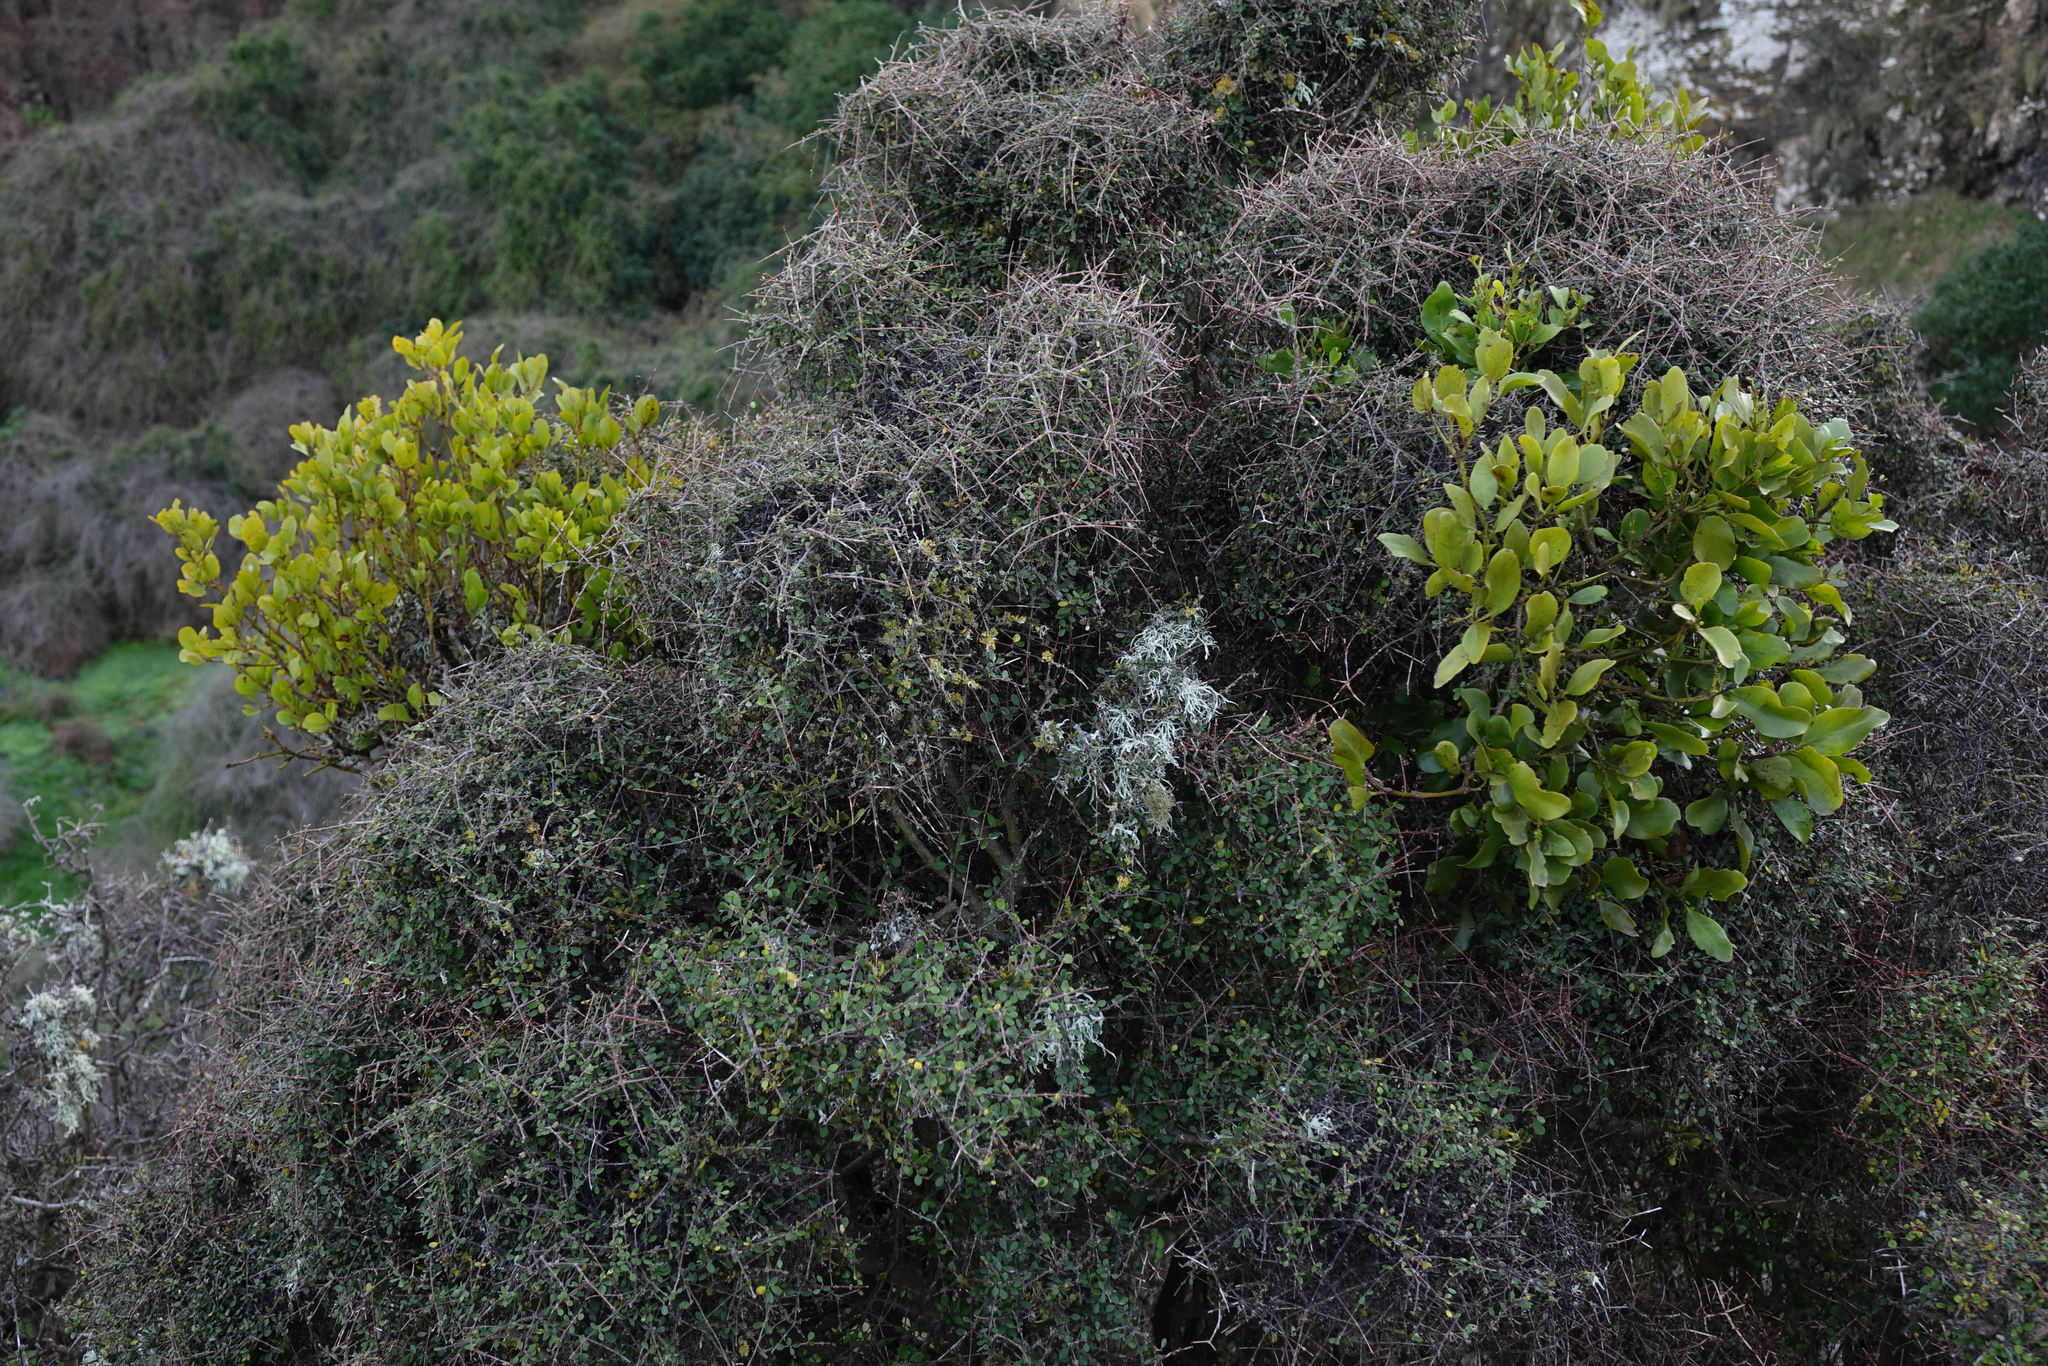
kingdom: Plantae
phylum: Tracheophyta
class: Magnoliopsida
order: Santalales
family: Loranthaceae
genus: Ileostylus
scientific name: Ileostylus micranthus
